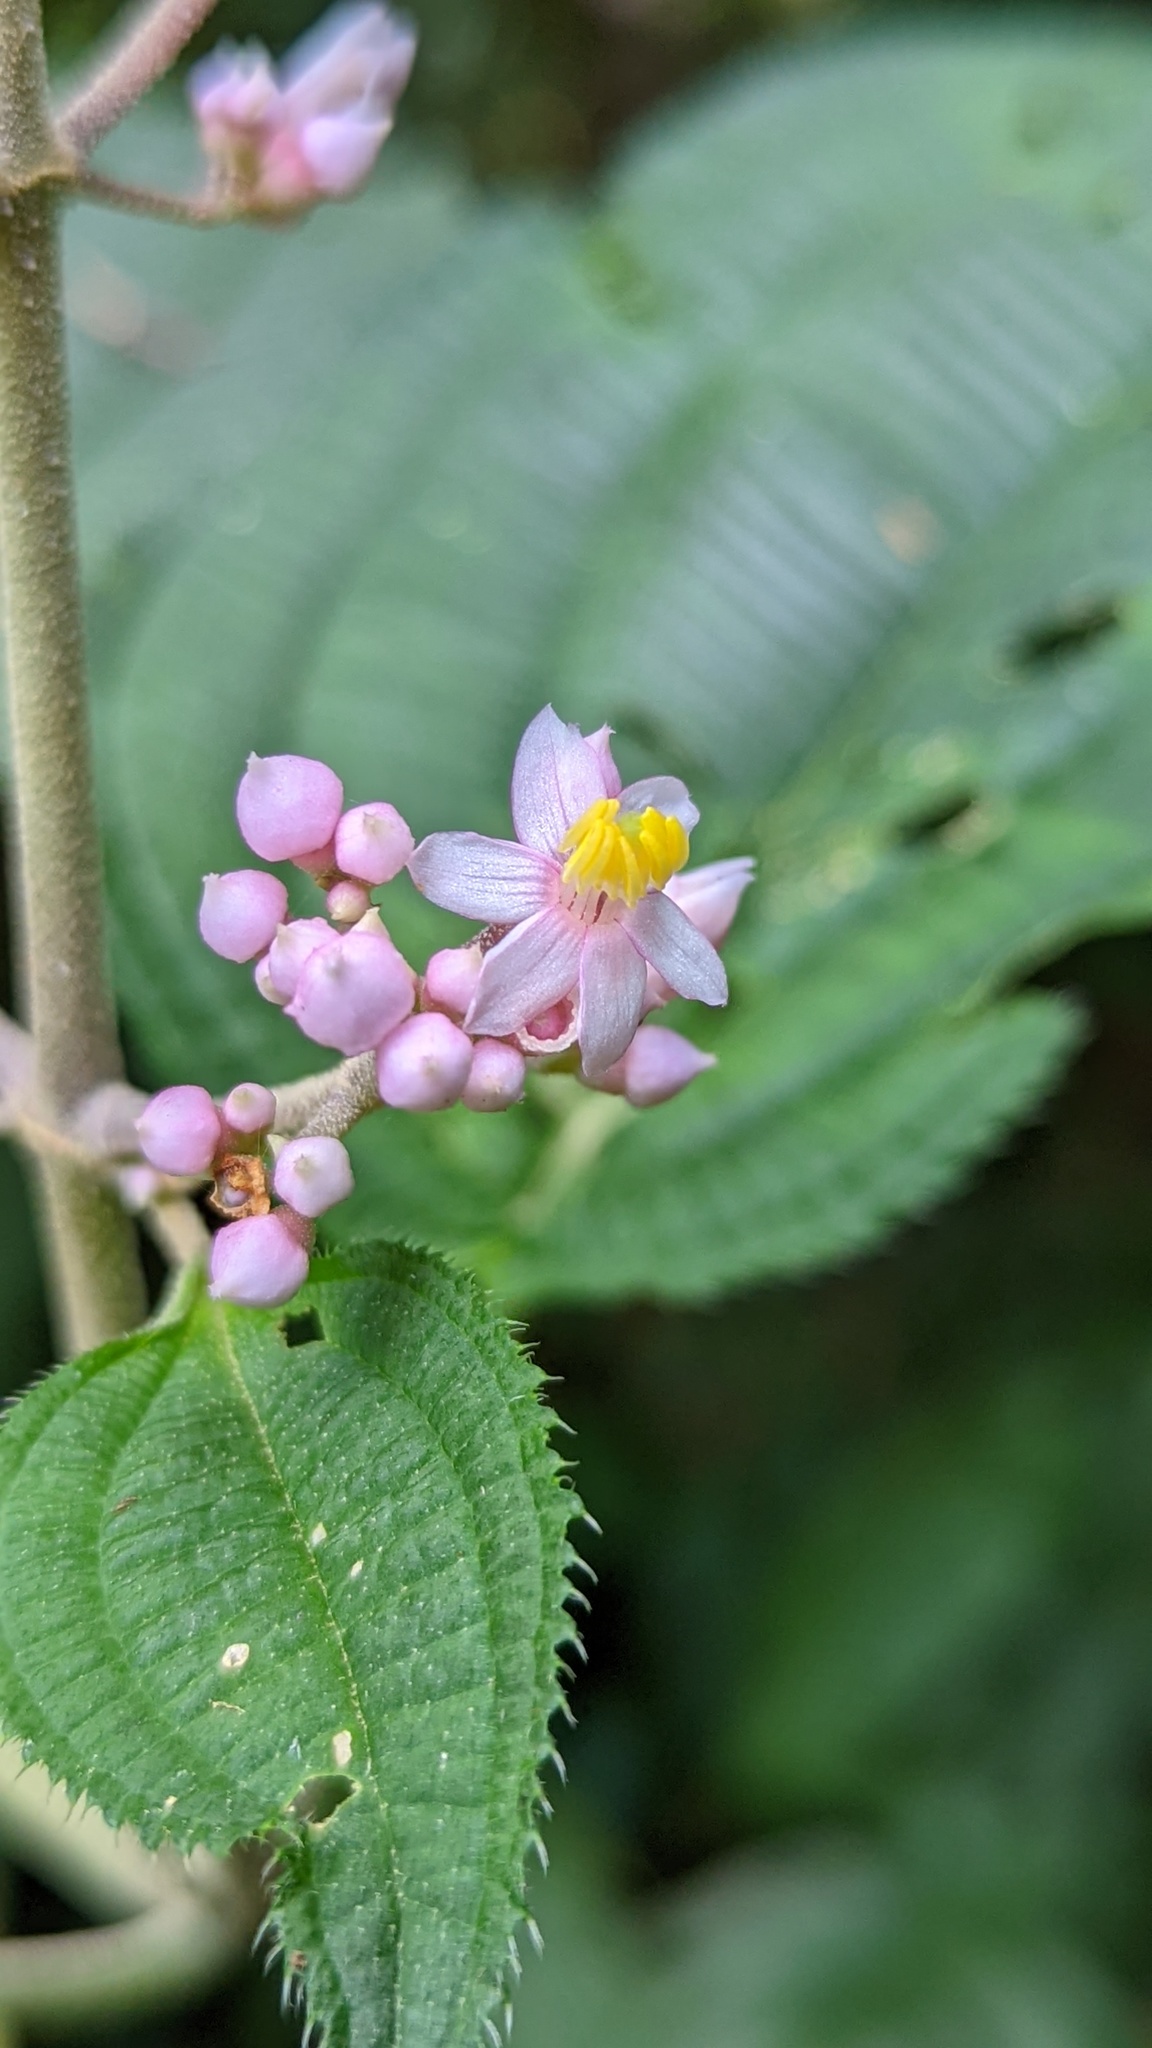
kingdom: Plantae
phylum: Tracheophyta
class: Magnoliopsida
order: Myrtales
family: Melastomataceae
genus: Miconia
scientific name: Miconia subcrustulata
